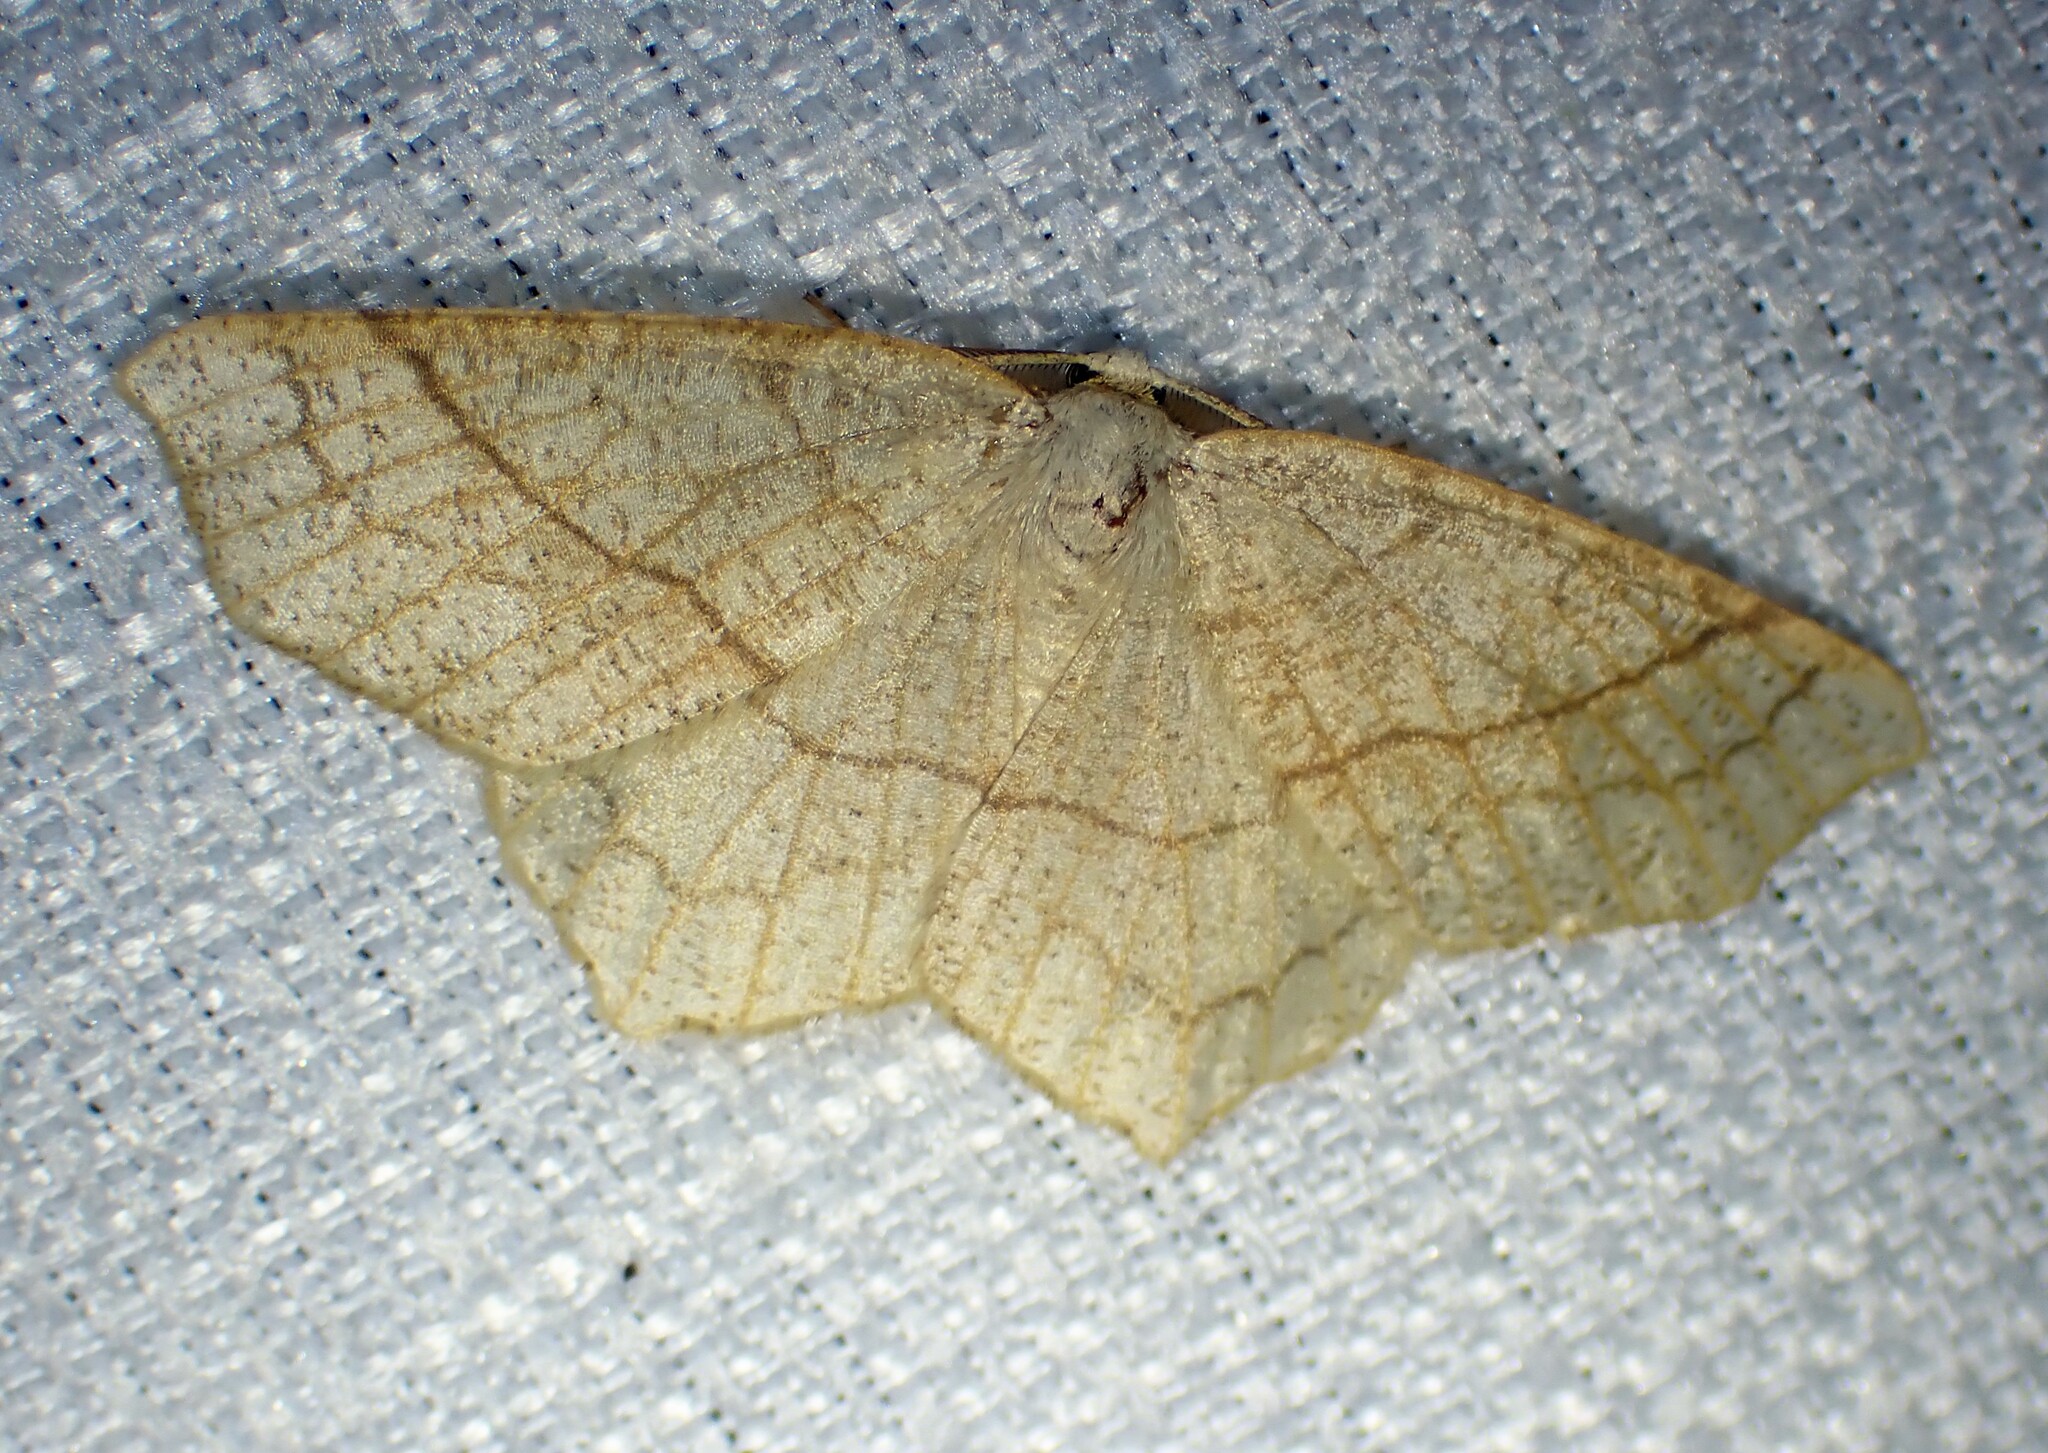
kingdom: Animalia
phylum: Arthropoda
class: Insecta
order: Lepidoptera
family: Geometridae
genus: Besma
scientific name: Besma quercivoraria
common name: Oak besma
